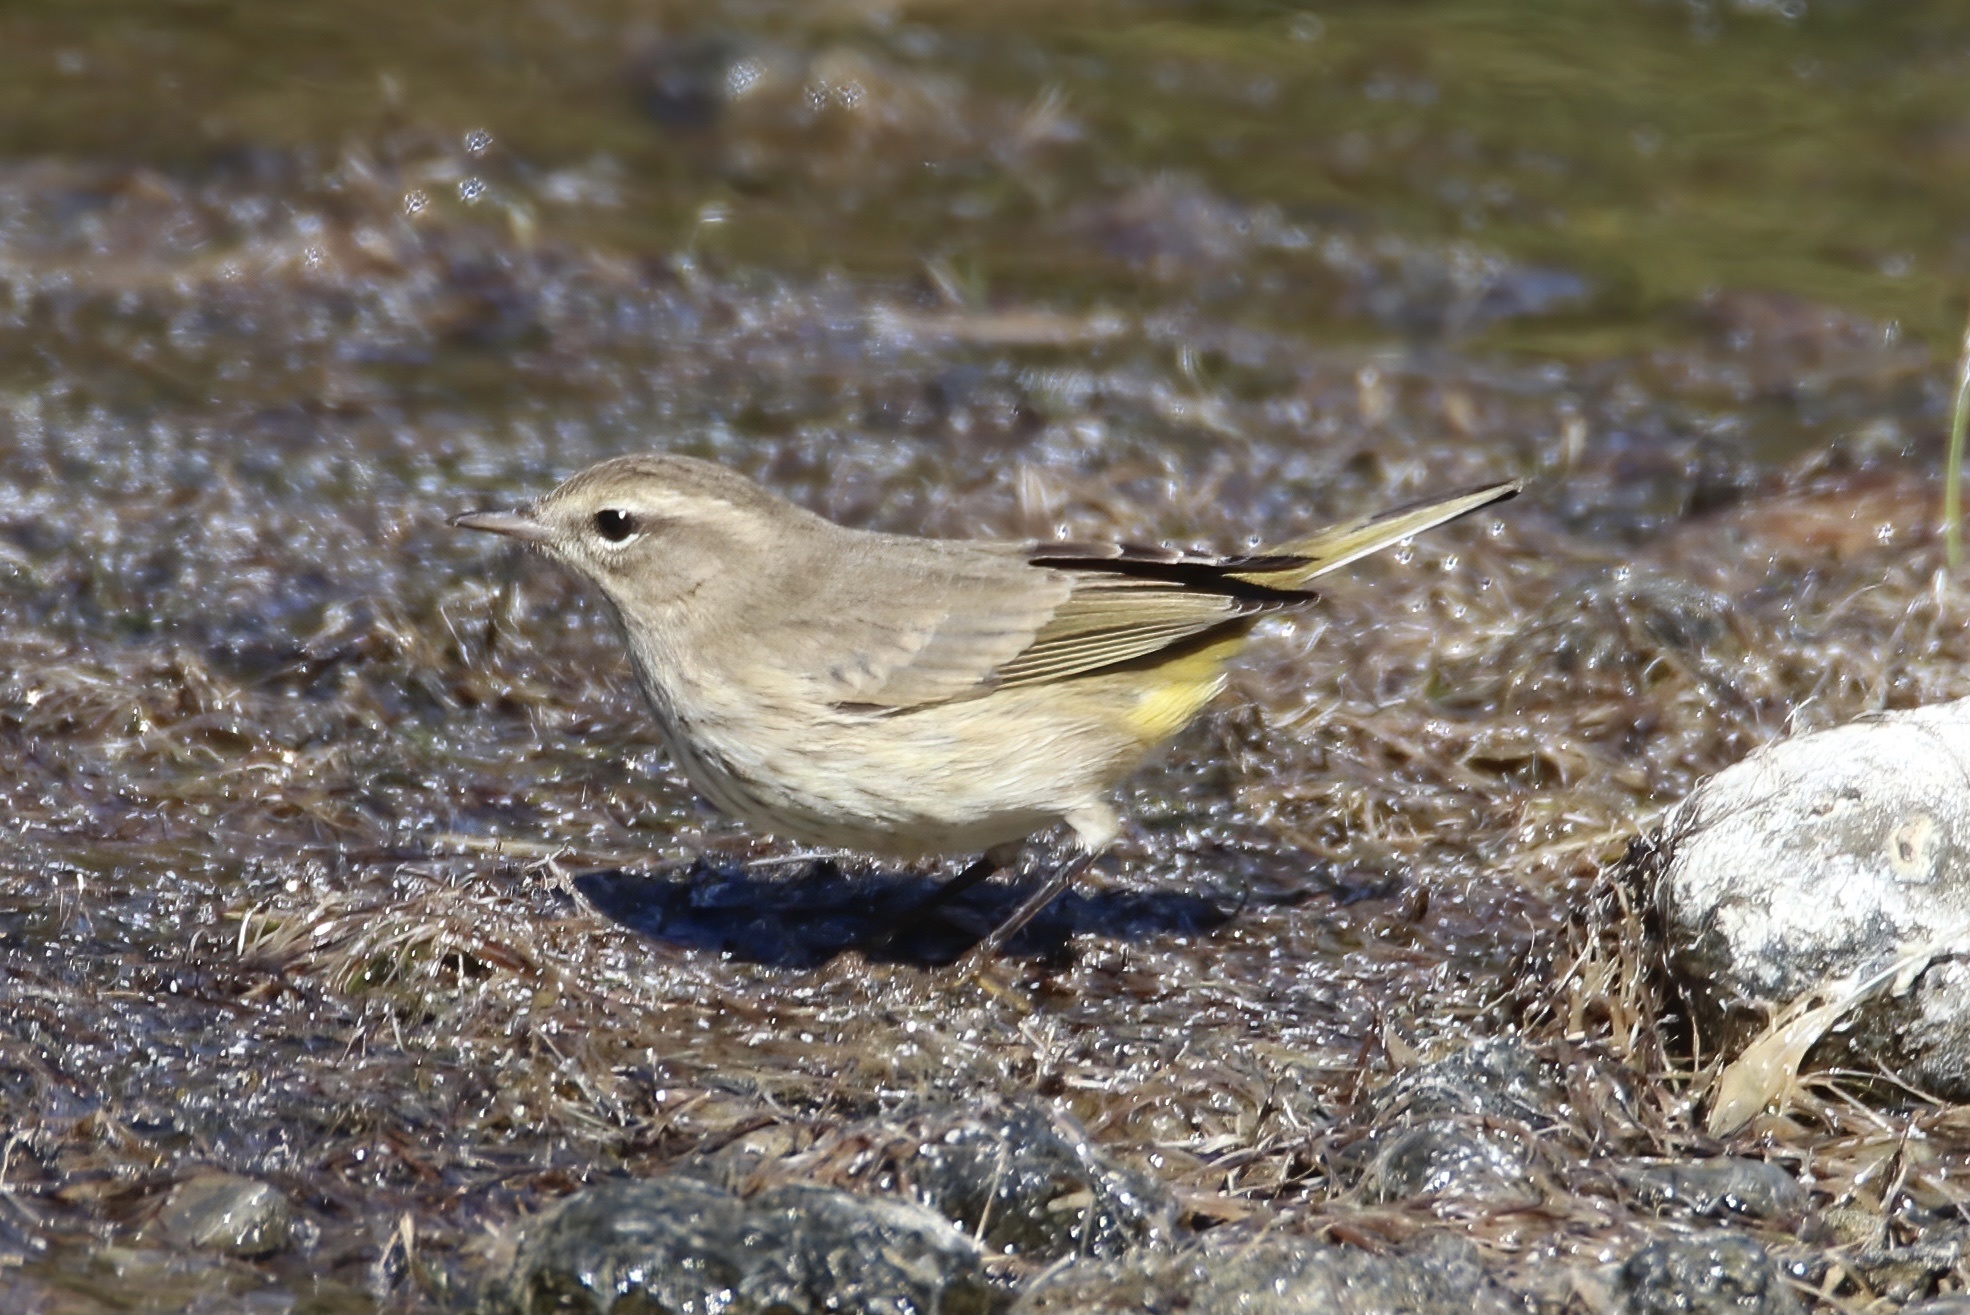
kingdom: Animalia
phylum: Chordata
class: Aves
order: Passeriformes
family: Parulidae
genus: Setophaga
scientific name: Setophaga palmarum
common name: Palm warbler
